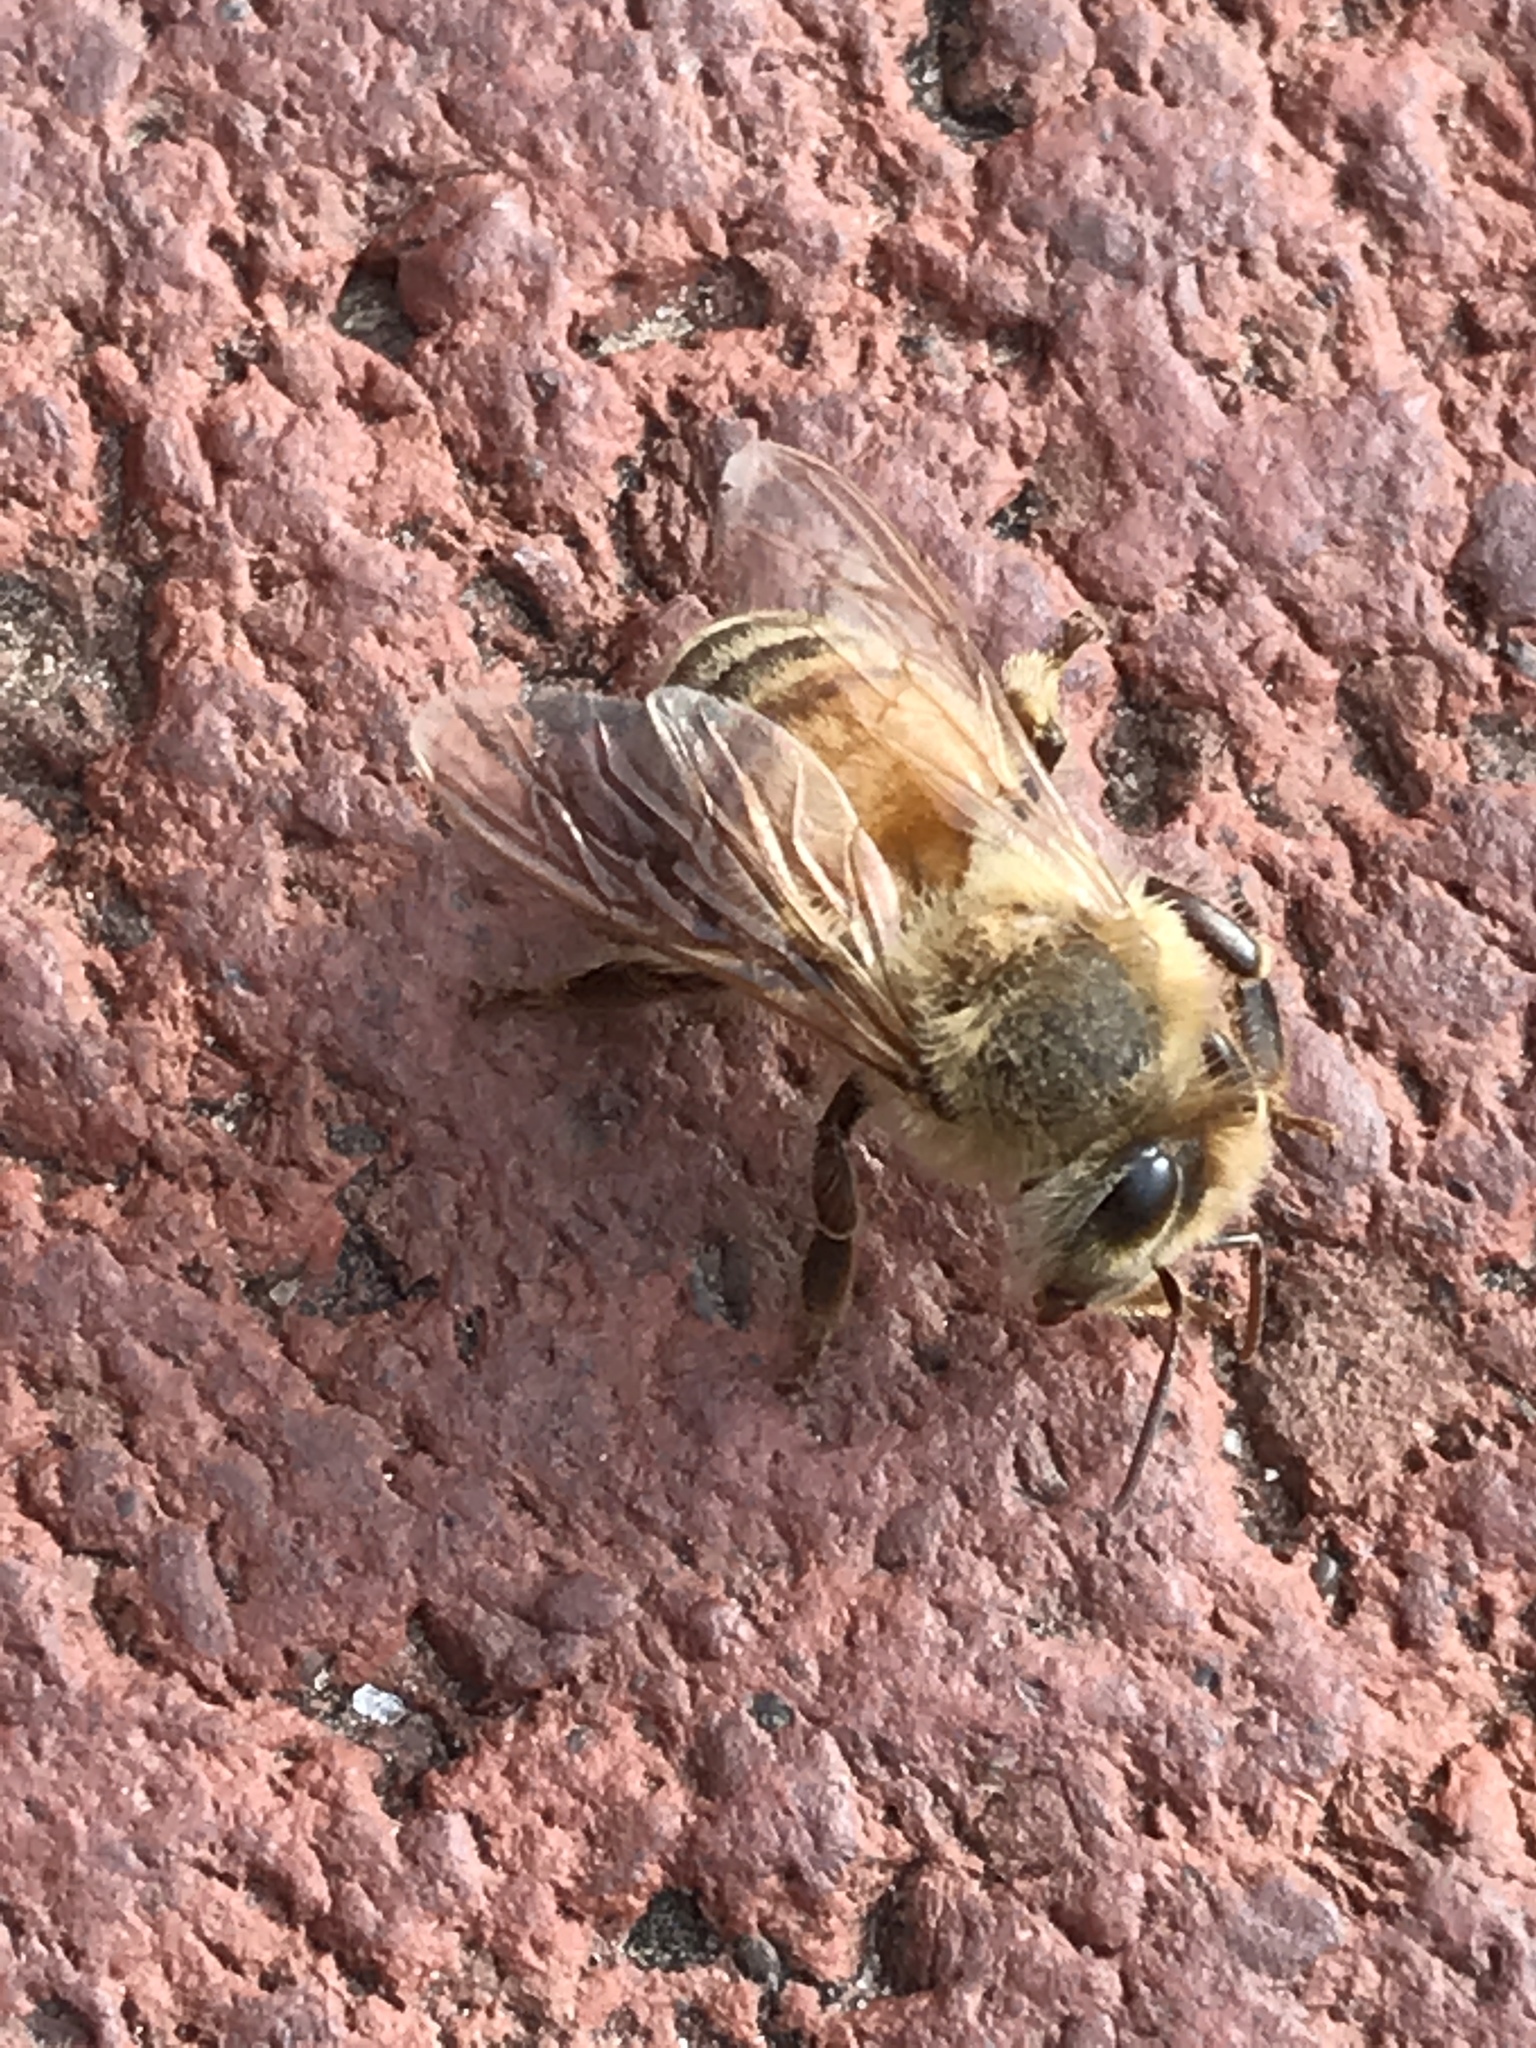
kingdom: Animalia
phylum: Arthropoda
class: Insecta
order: Hymenoptera
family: Apidae
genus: Apis
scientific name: Apis mellifera
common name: Honey bee
